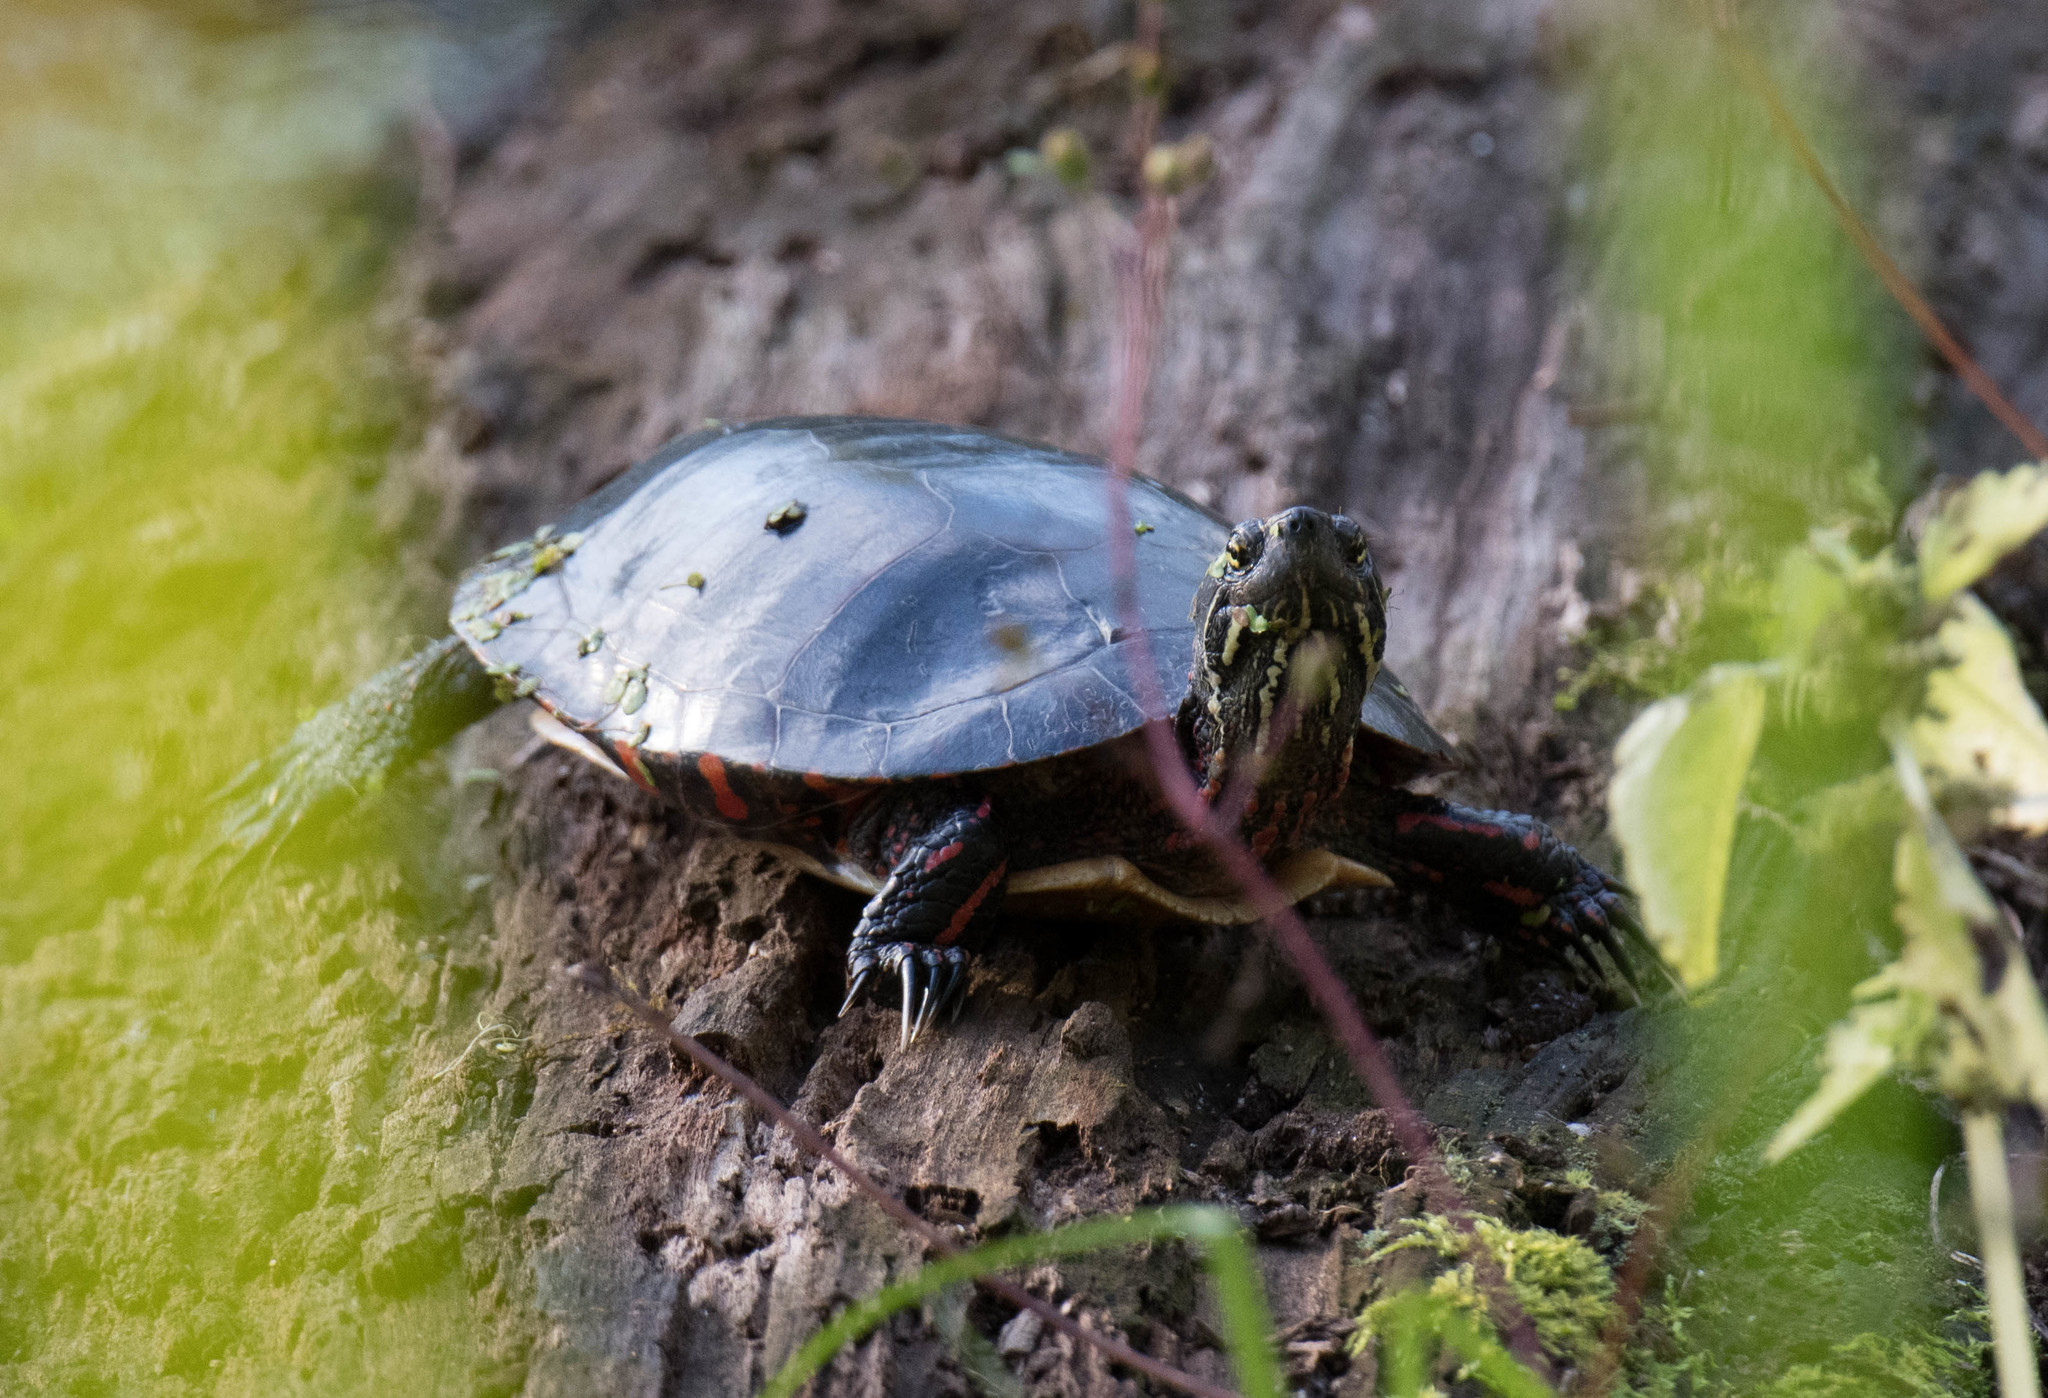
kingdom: Animalia
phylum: Chordata
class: Testudines
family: Emydidae
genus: Chrysemys
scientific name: Chrysemys picta
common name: Painted turtle
